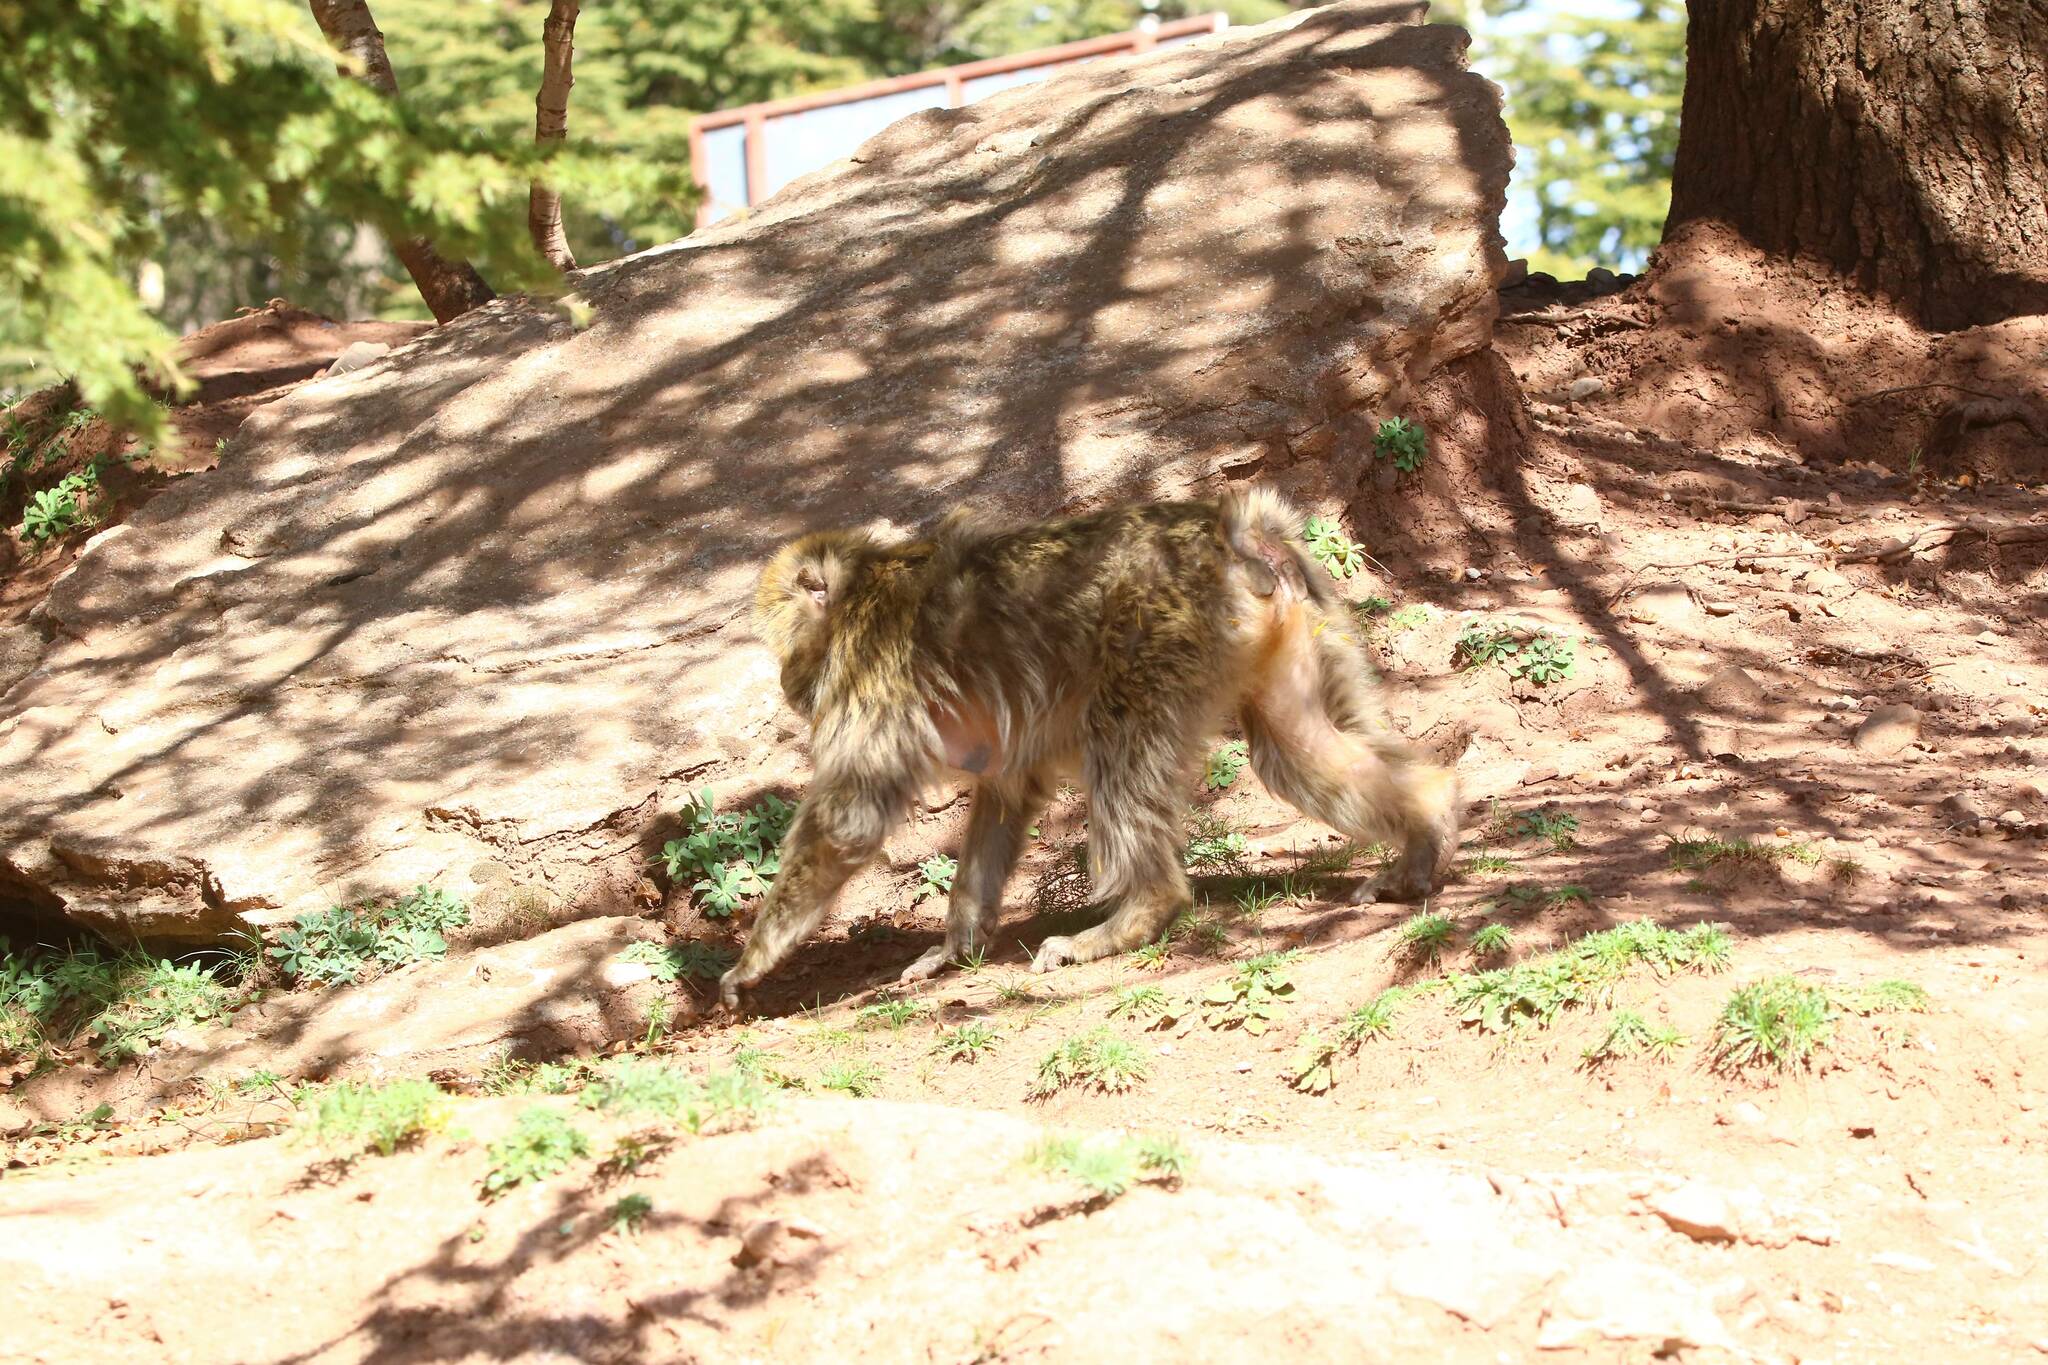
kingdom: Animalia
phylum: Chordata
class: Mammalia
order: Primates
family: Cercopithecidae
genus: Macaca
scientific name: Macaca sylvanus
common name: Barbary macaque
